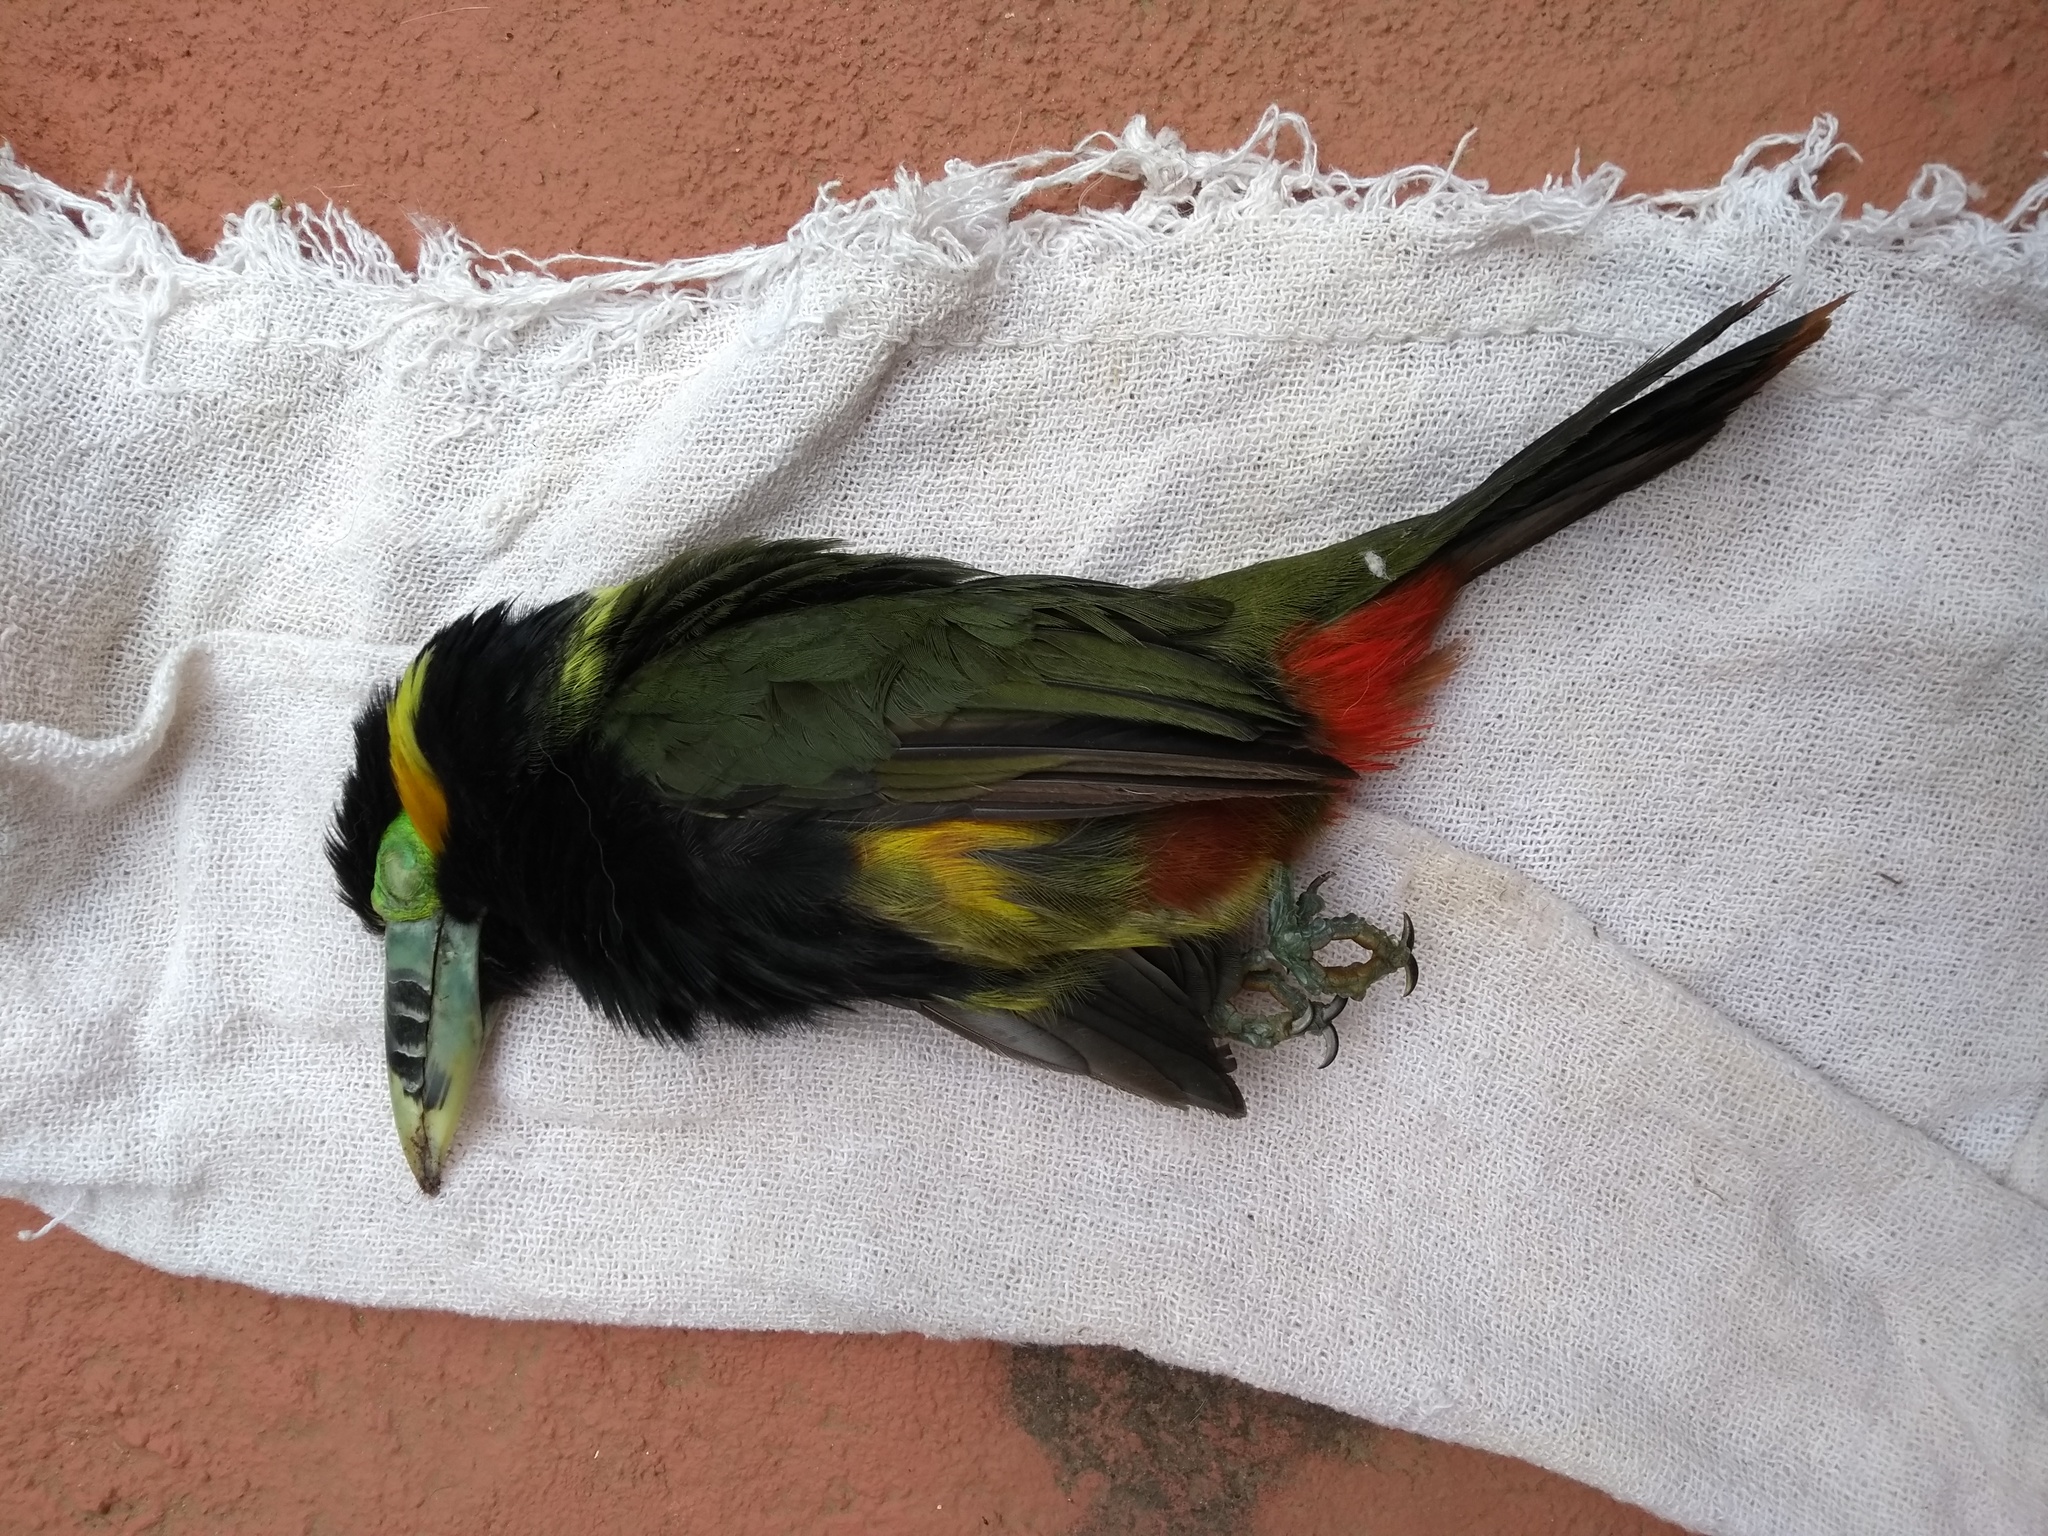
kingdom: Animalia
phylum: Chordata
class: Aves
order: Piciformes
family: Ramphastidae
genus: Selenidera
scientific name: Selenidera maculirostris
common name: Spot-billed toucanet
